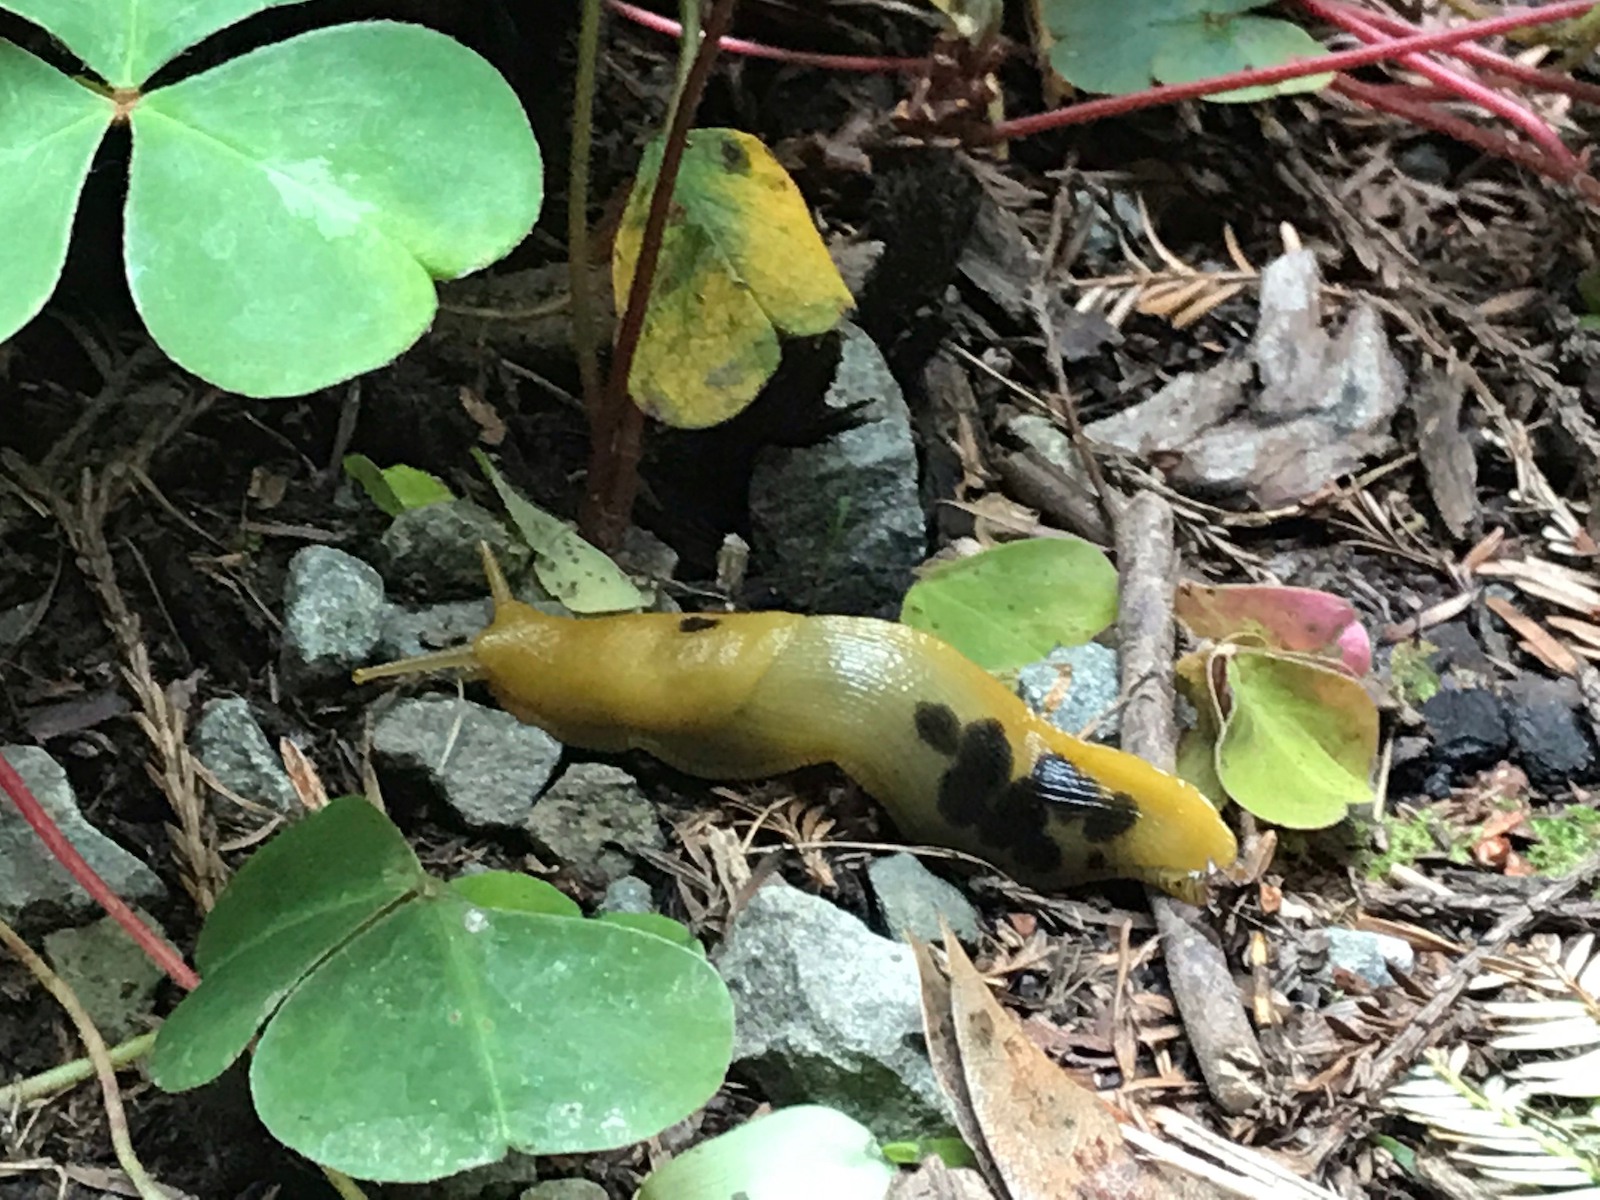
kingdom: Animalia
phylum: Mollusca
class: Gastropoda
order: Stylommatophora
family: Ariolimacidae
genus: Ariolimax
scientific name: Ariolimax columbianus
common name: Pacific banana slug
